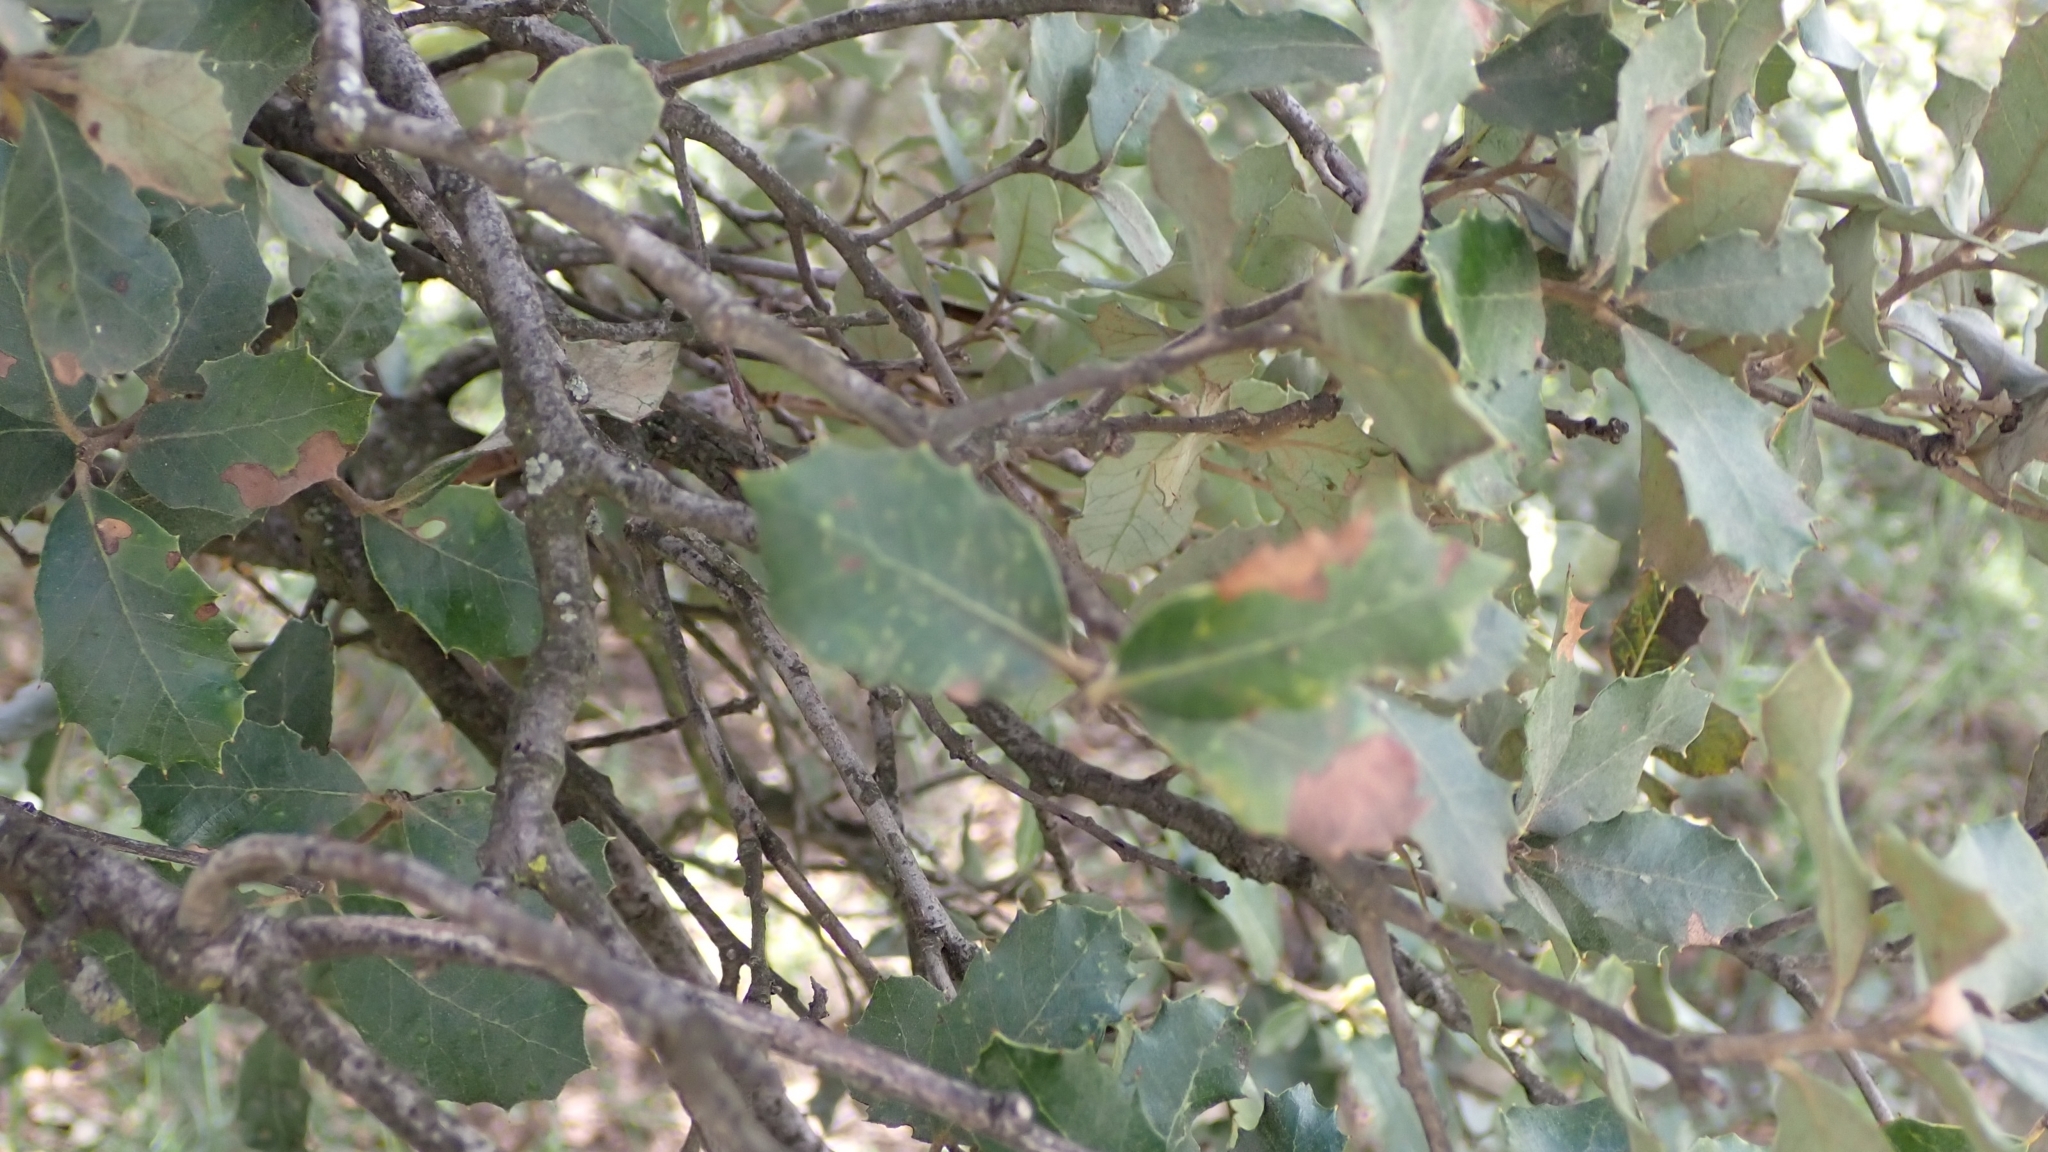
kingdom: Plantae
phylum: Tracheophyta
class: Magnoliopsida
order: Fagales
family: Fagaceae
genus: Quercus
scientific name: Quercus rotundifolia
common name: Holm oak
